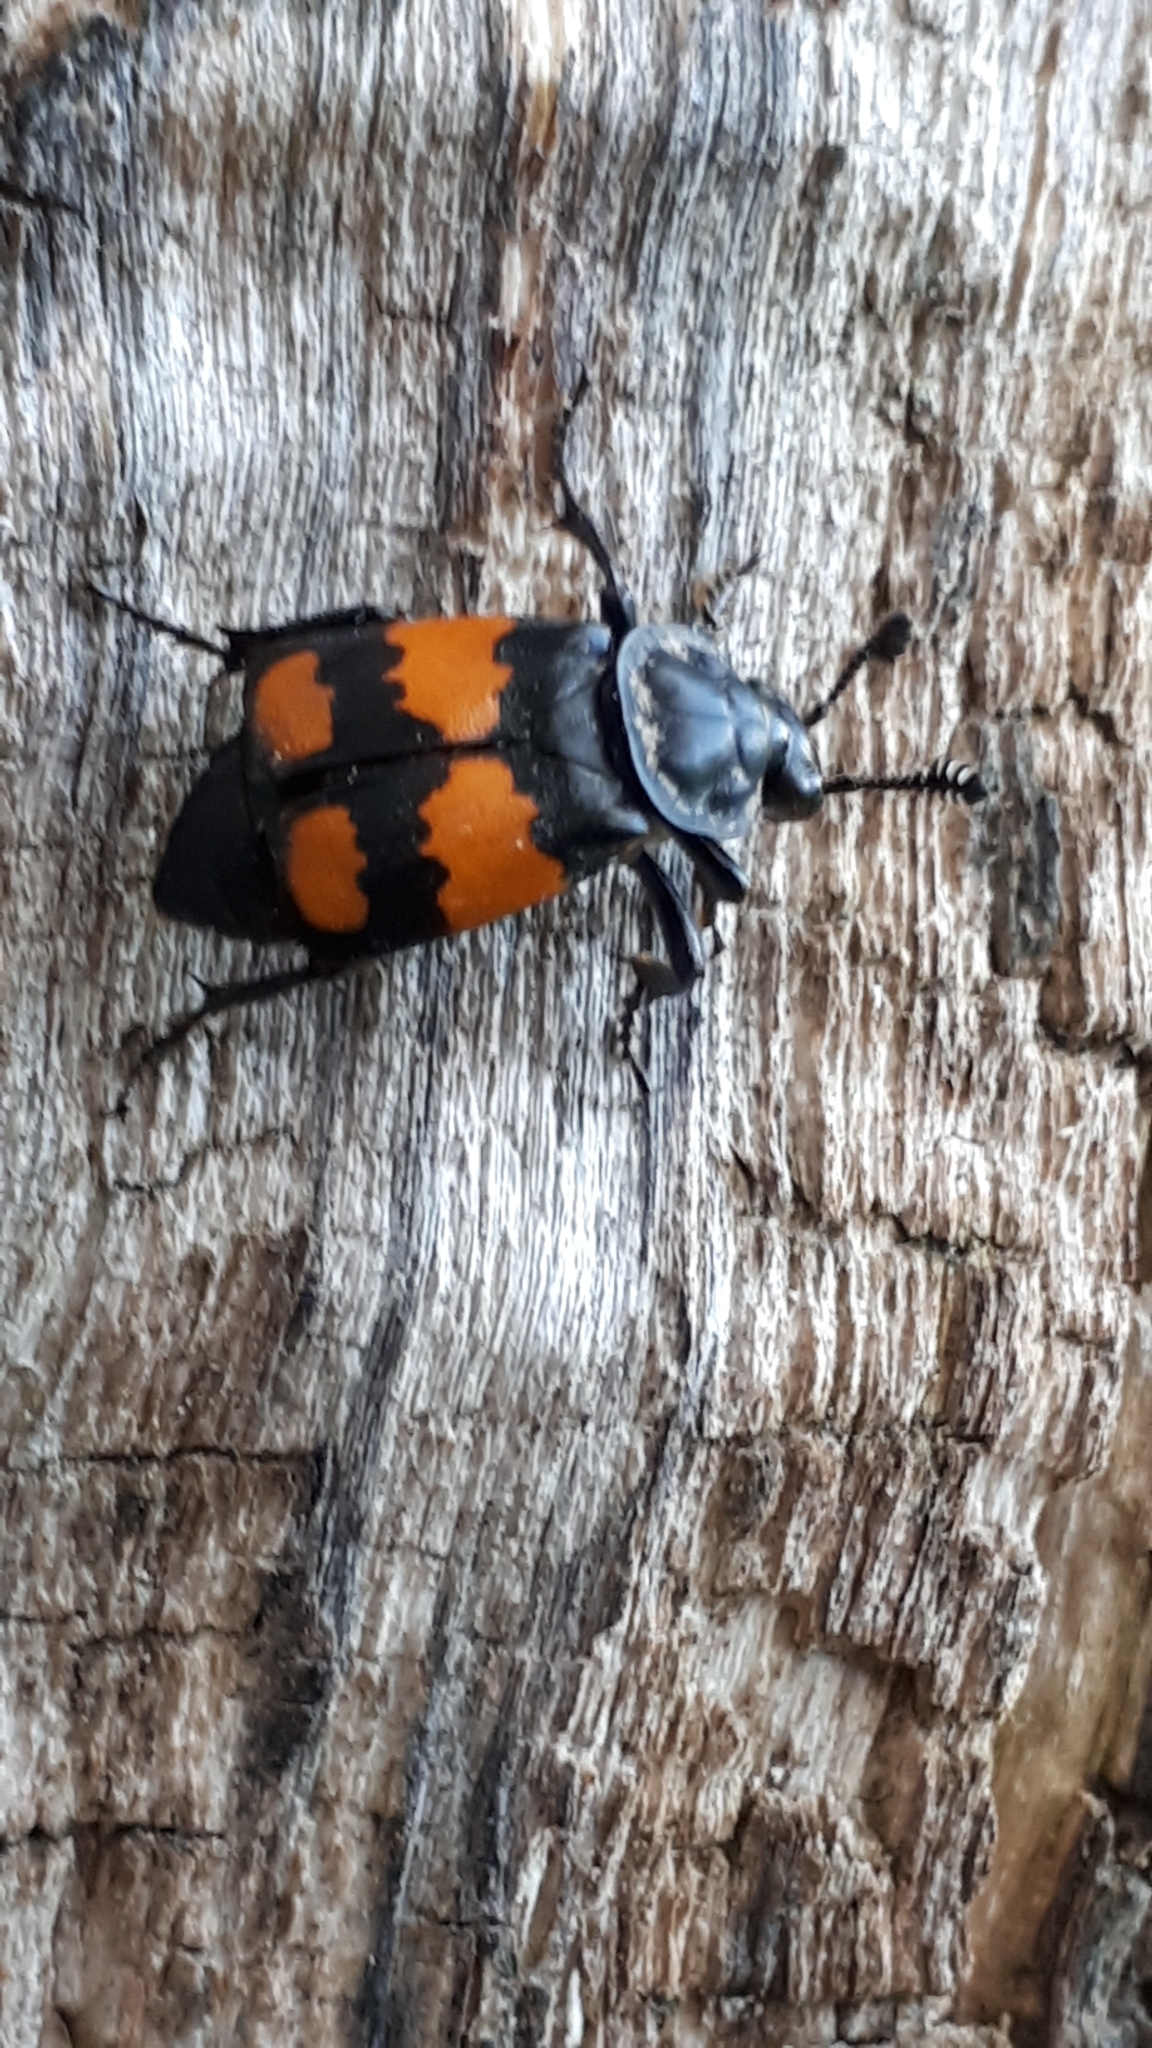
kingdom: Animalia
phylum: Arthropoda
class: Insecta
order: Coleoptera
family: Staphylinidae
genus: Nicrophorus
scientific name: Nicrophorus vespilloides
